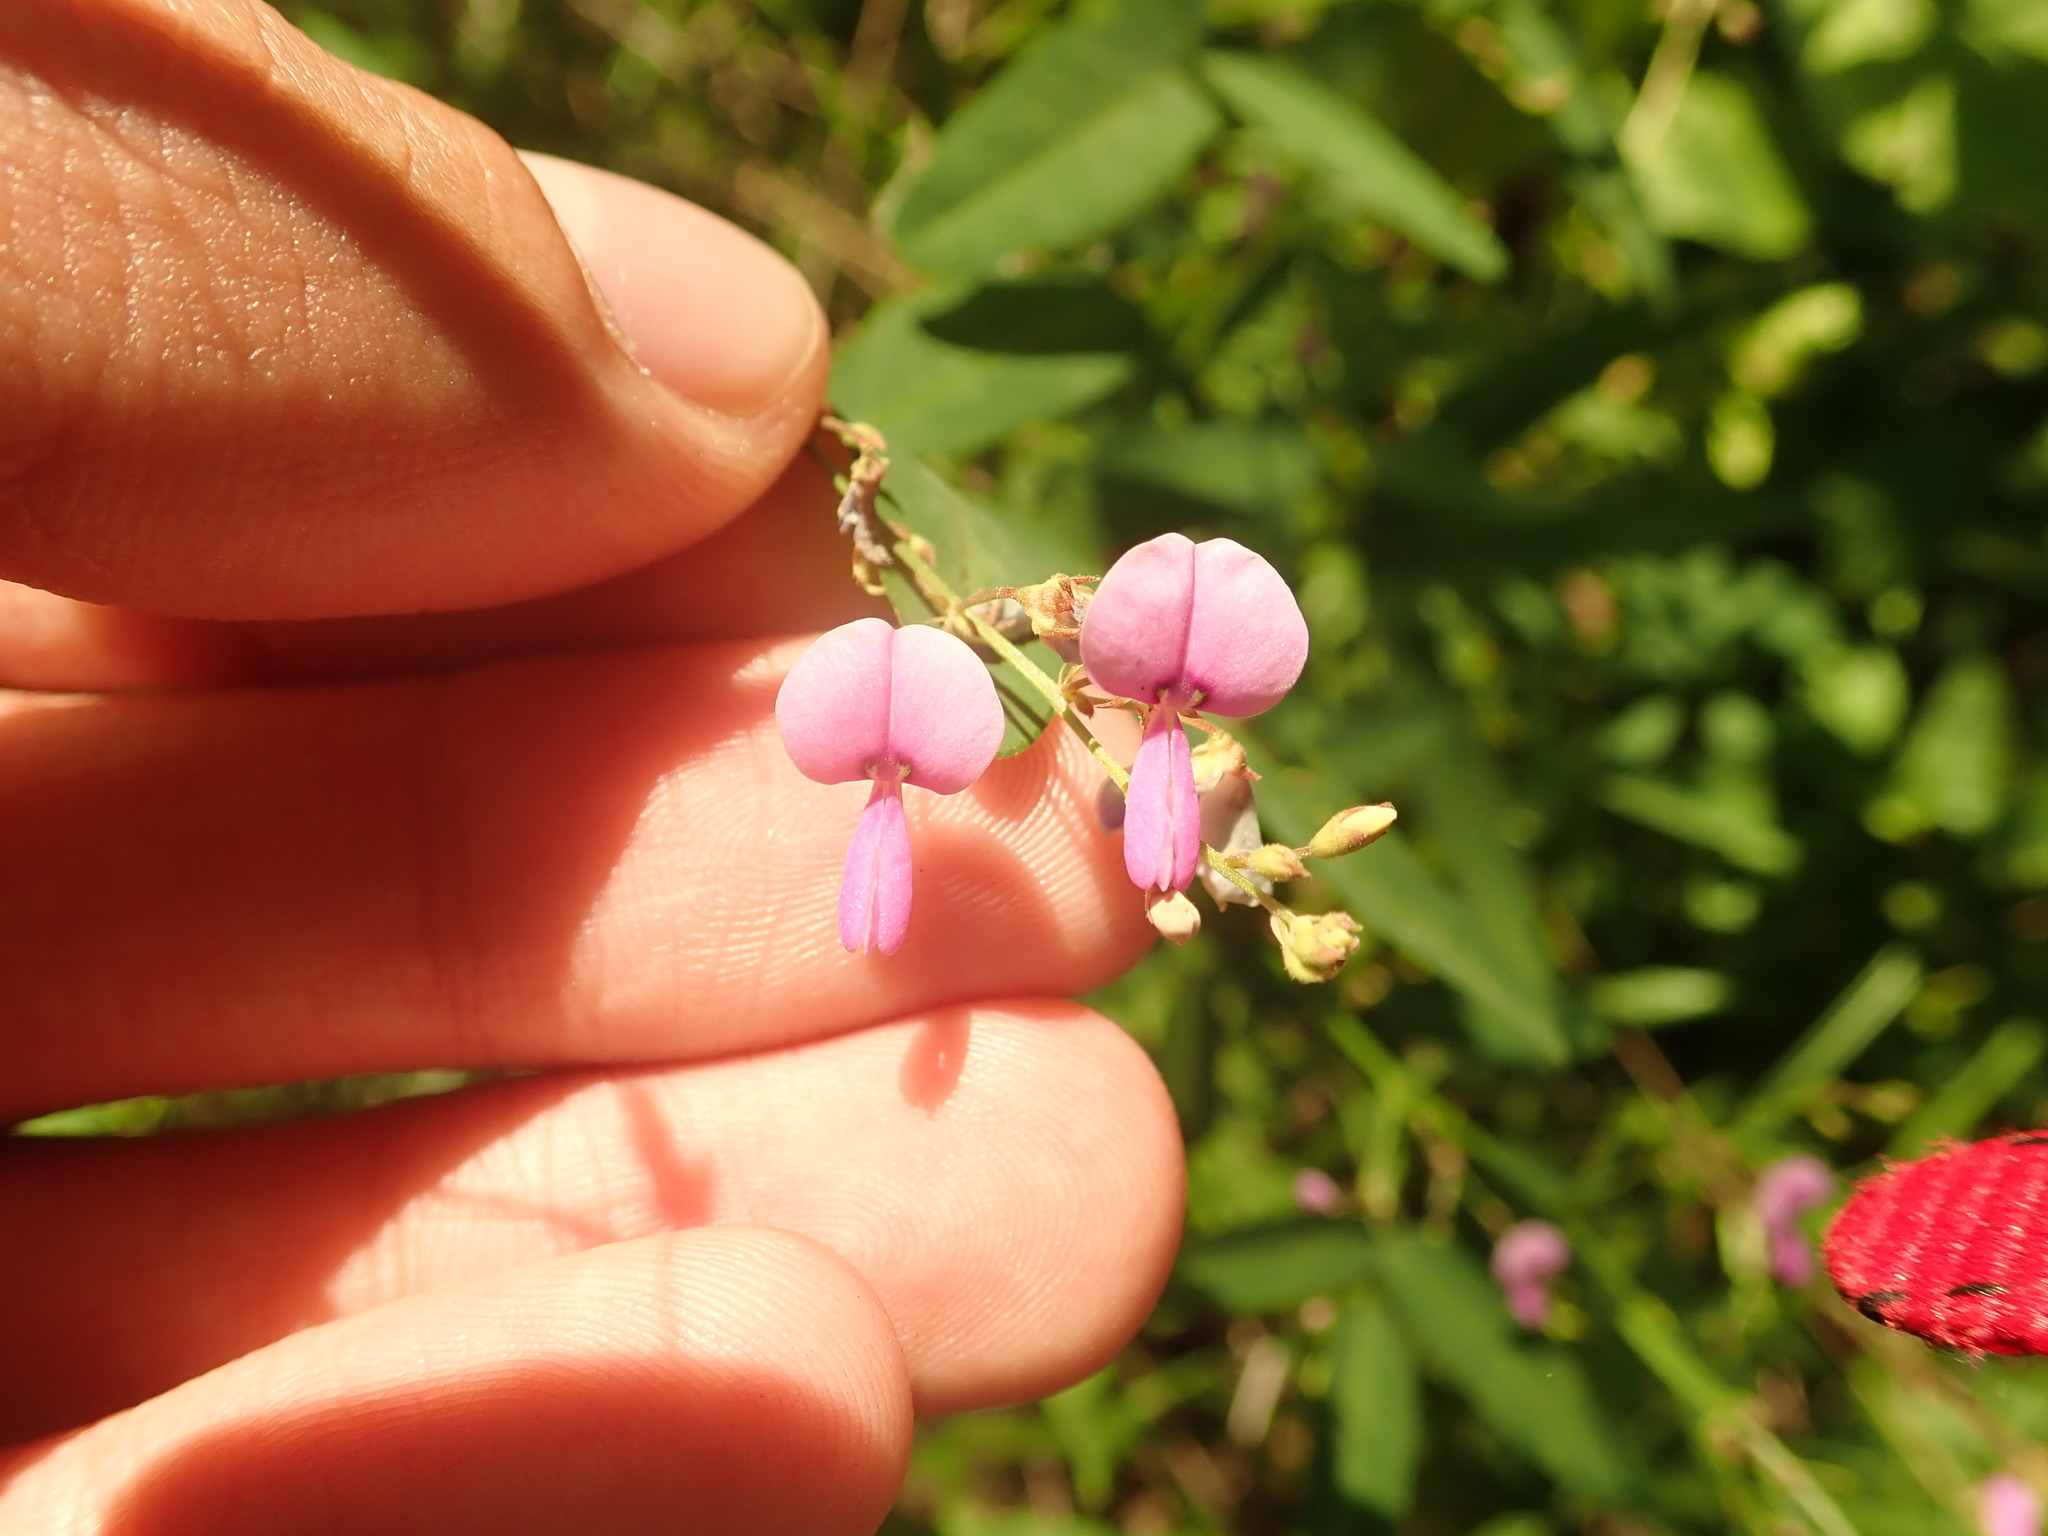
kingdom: Plantae
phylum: Tracheophyta
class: Magnoliopsida
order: Fabales
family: Fabaceae
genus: Desmodium
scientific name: Desmodium paniculatum
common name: Panicled tick-clover
